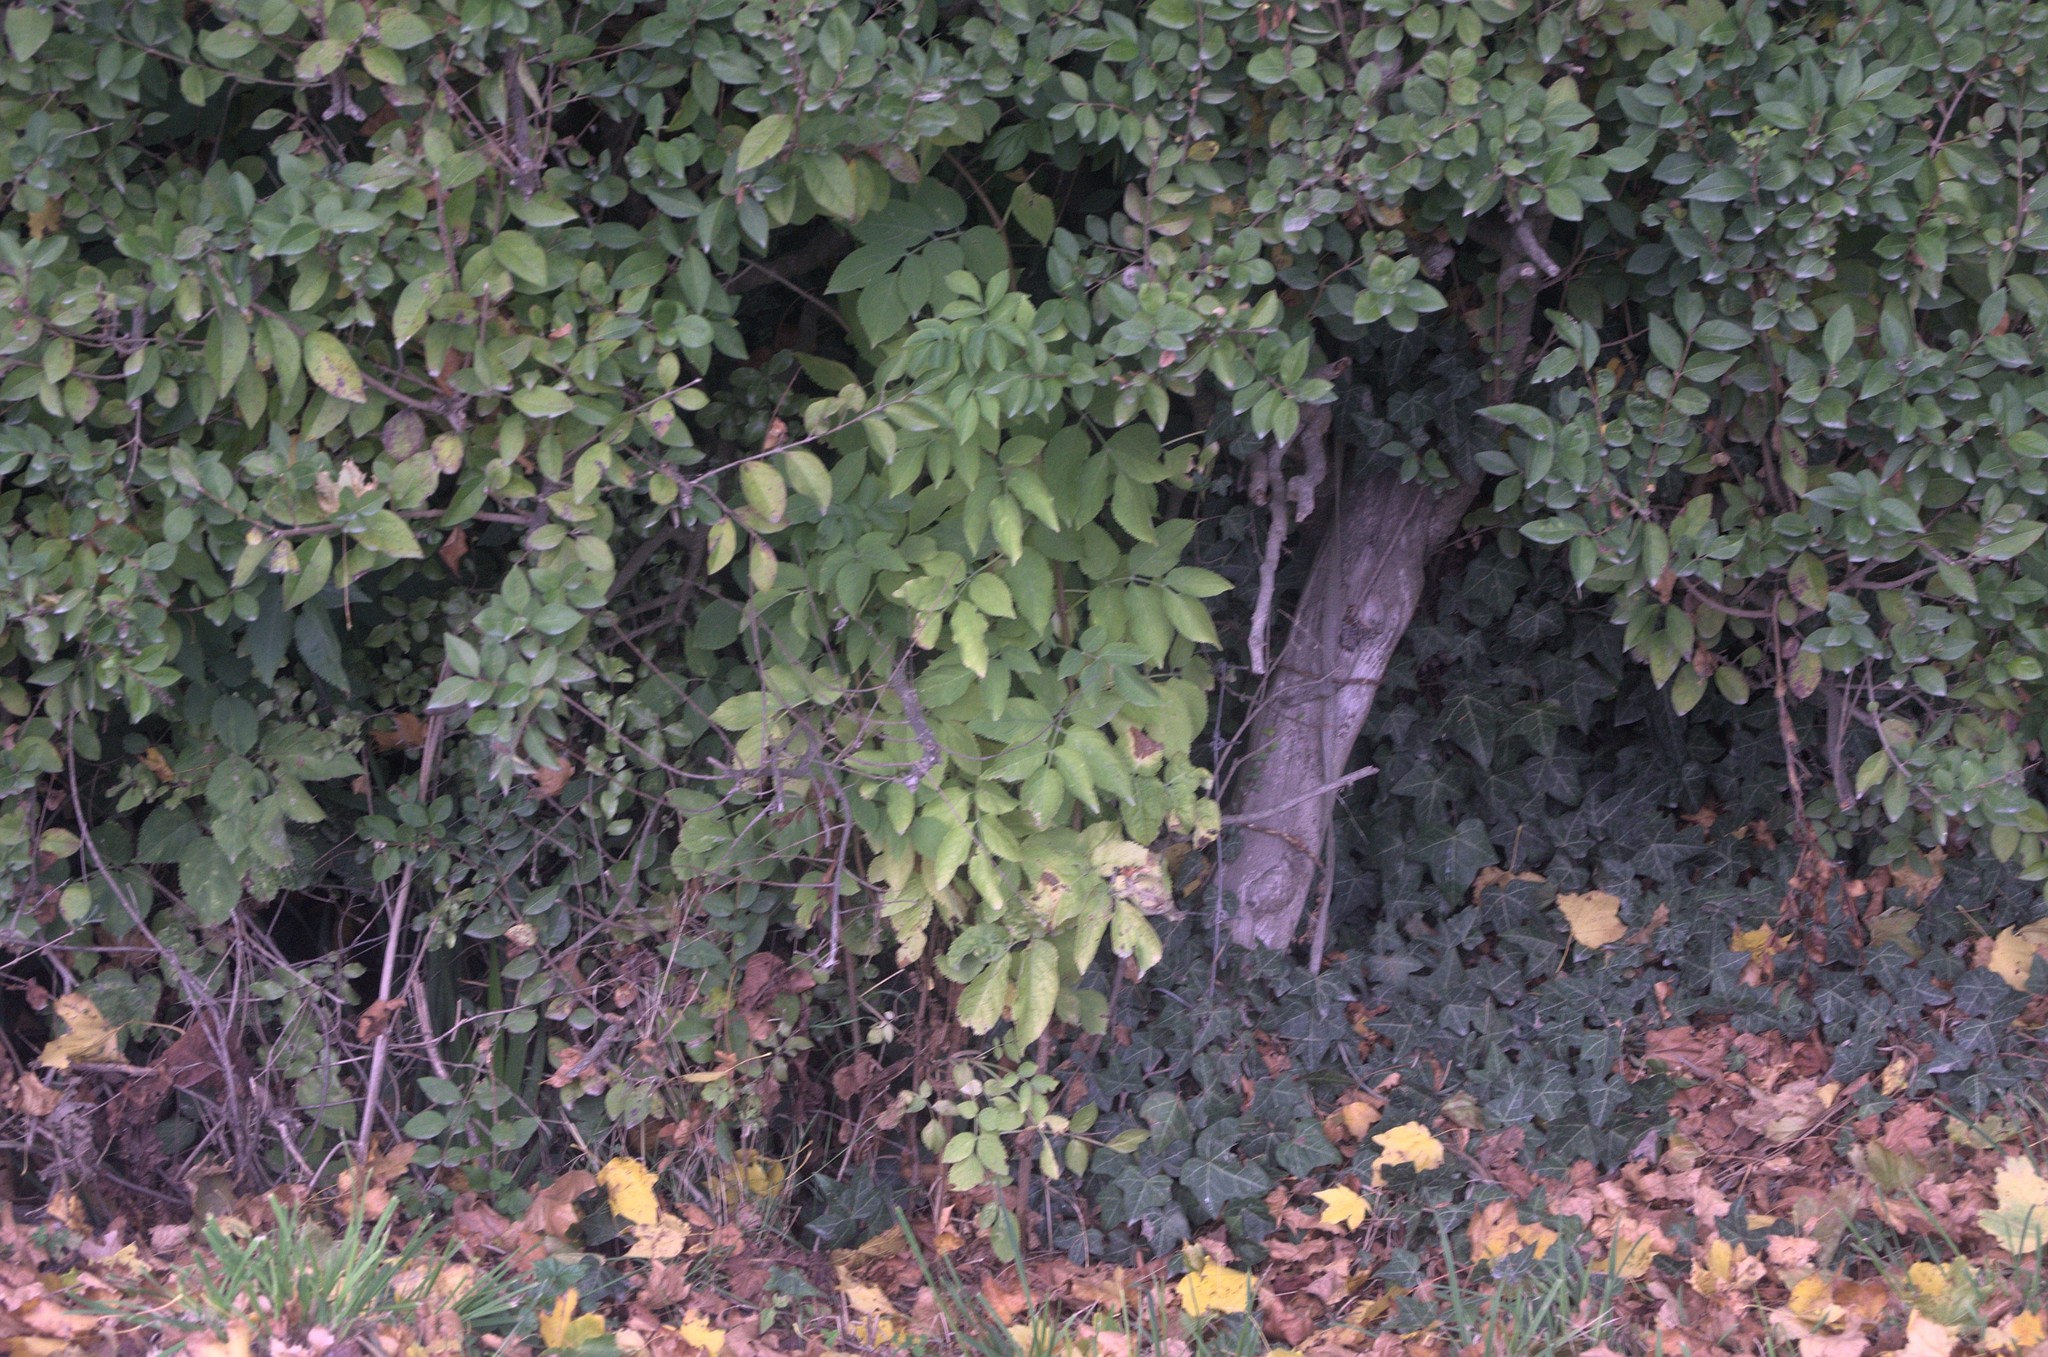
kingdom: Plantae
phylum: Tracheophyta
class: Magnoliopsida
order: Dipsacales
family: Viburnaceae
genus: Sambucus
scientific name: Sambucus nigra
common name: Elder
